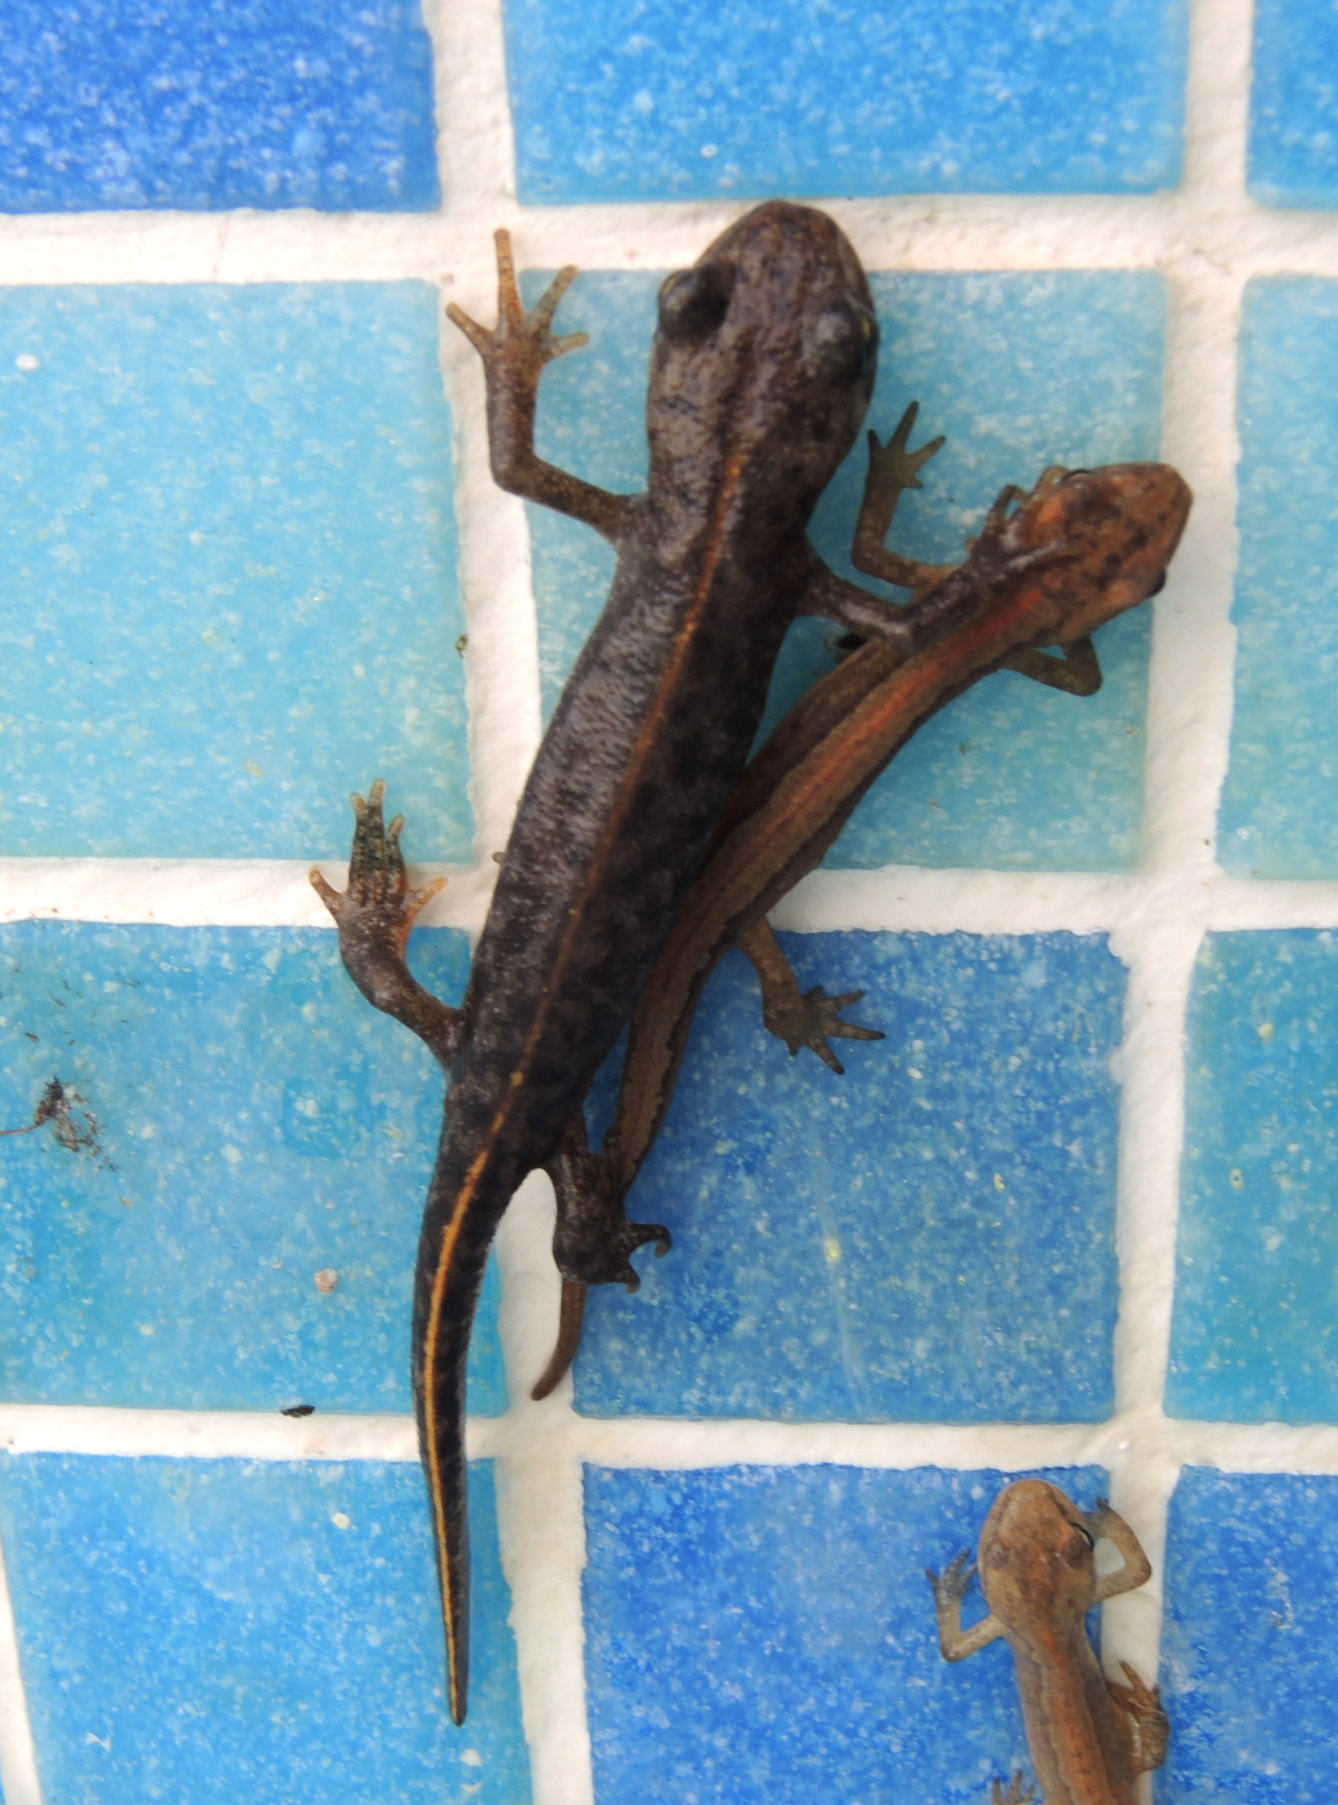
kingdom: Animalia
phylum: Chordata
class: Amphibia
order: Caudata
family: Salamandridae
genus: Triturus
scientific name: Triturus ivanbureschi
